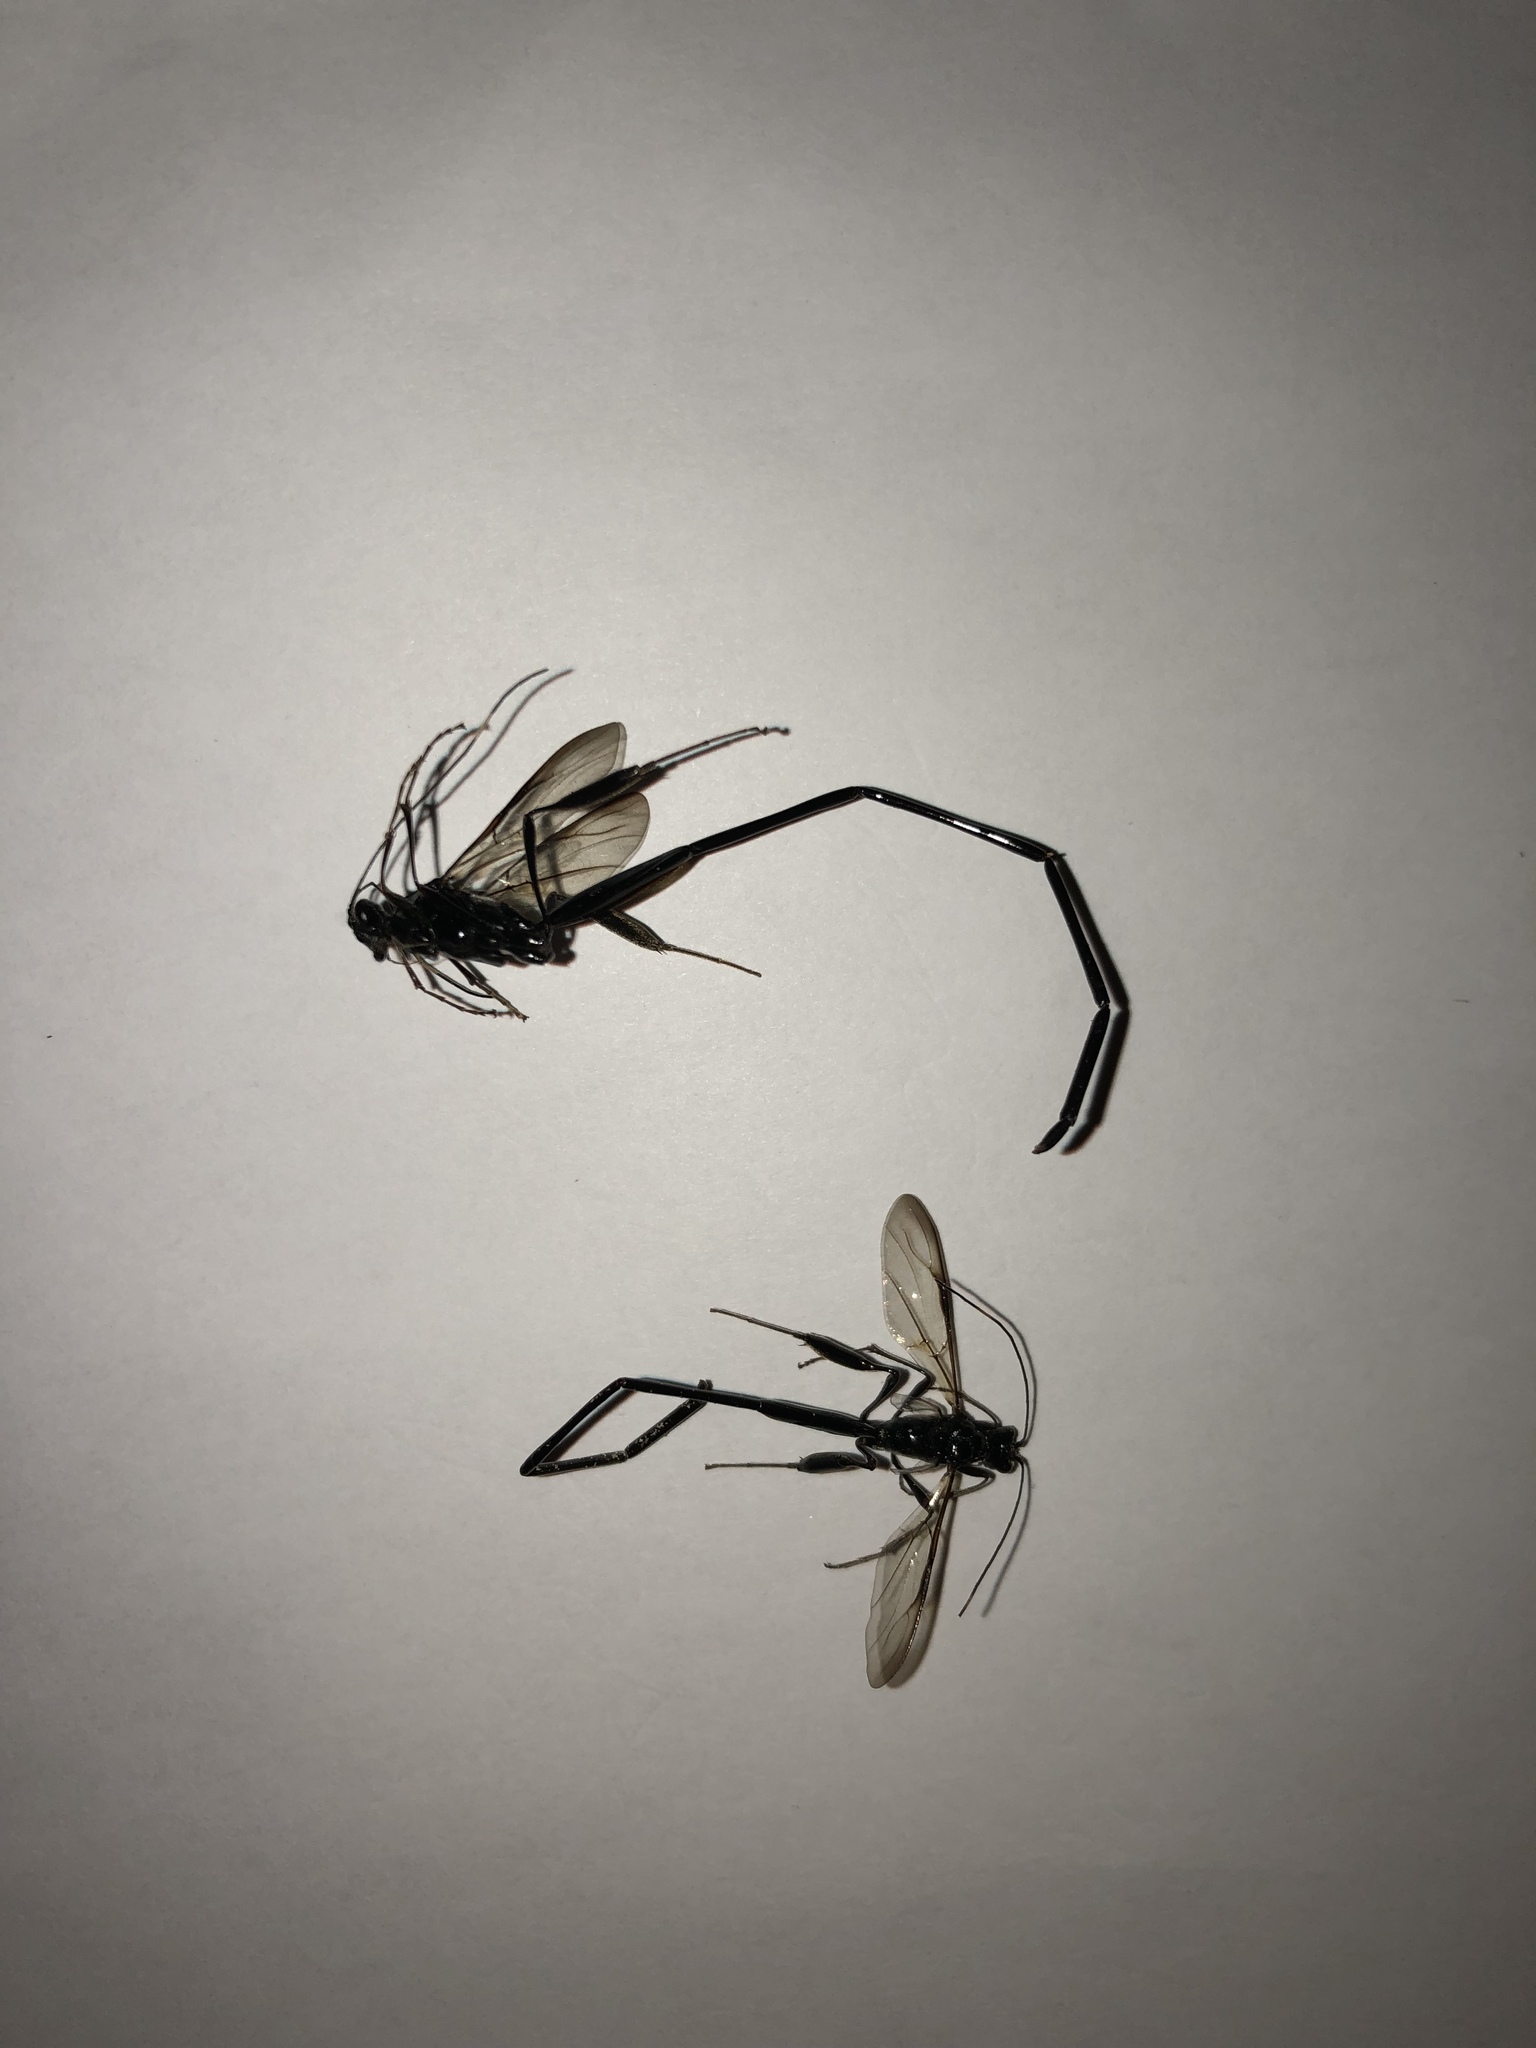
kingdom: Animalia
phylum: Arthropoda
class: Insecta
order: Hymenoptera
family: Pelecinidae
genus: Pelecinus
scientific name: Pelecinus polyturator
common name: American pelecinid wasp
